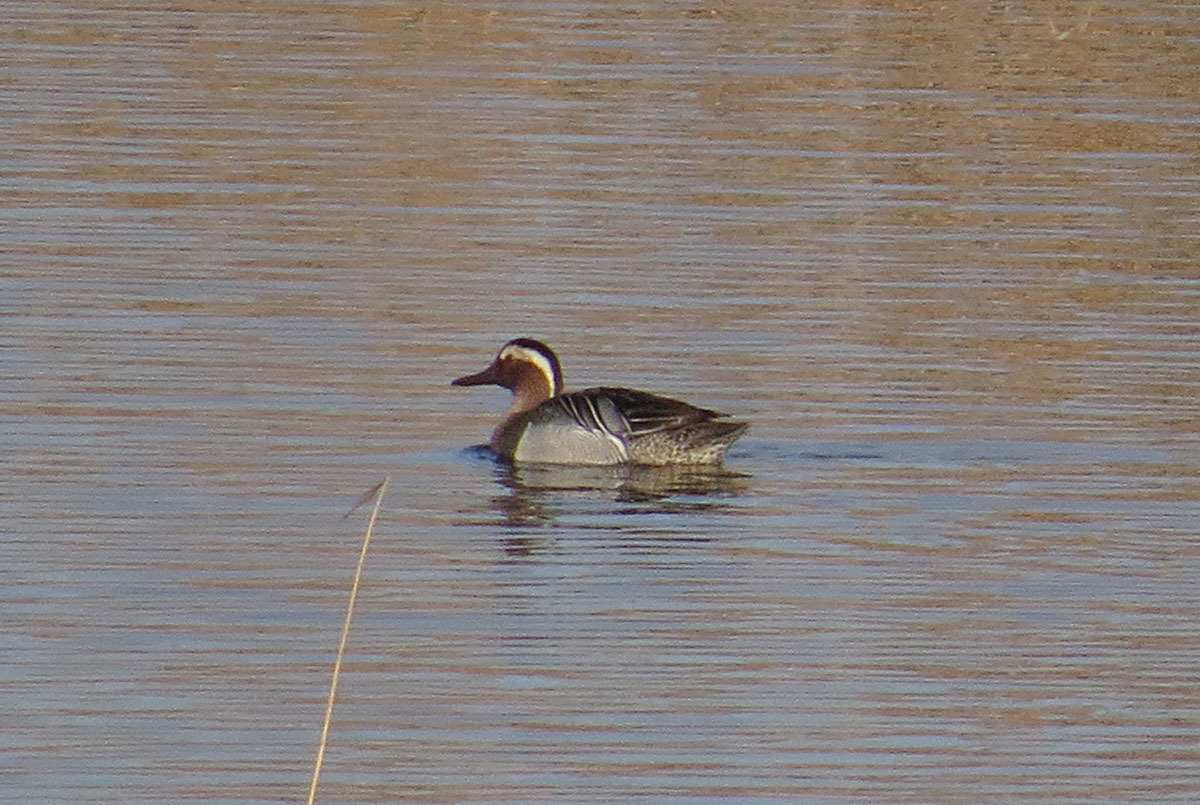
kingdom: Animalia
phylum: Chordata
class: Aves
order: Anseriformes
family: Anatidae
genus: Spatula
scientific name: Spatula querquedula
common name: Garganey
